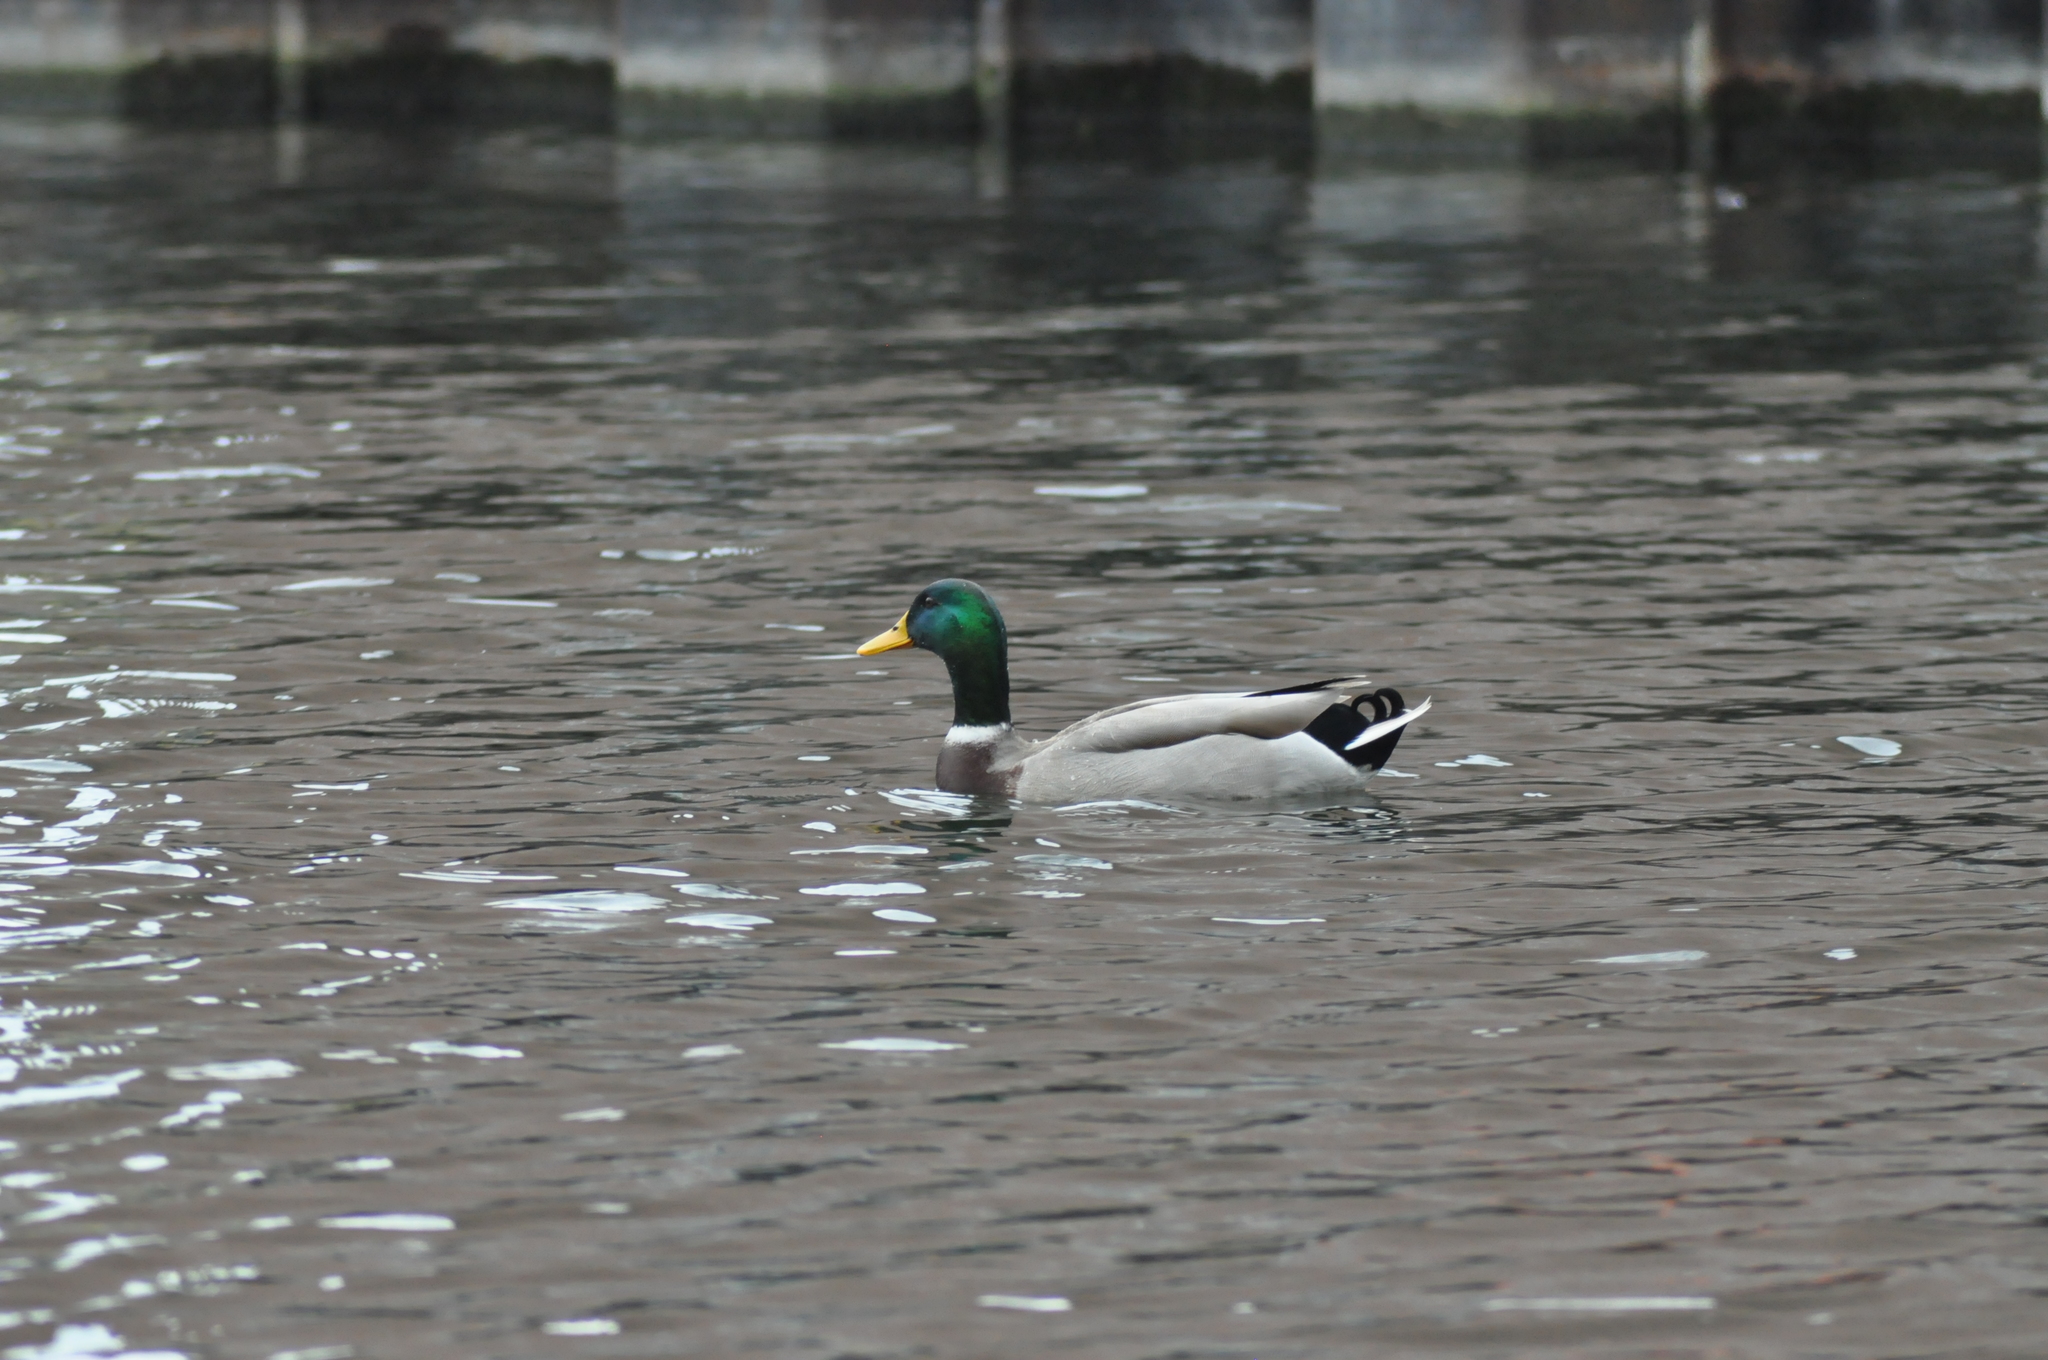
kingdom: Animalia
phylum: Chordata
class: Aves
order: Anseriformes
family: Anatidae
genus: Anas
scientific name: Anas platyrhynchos
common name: Mallard
